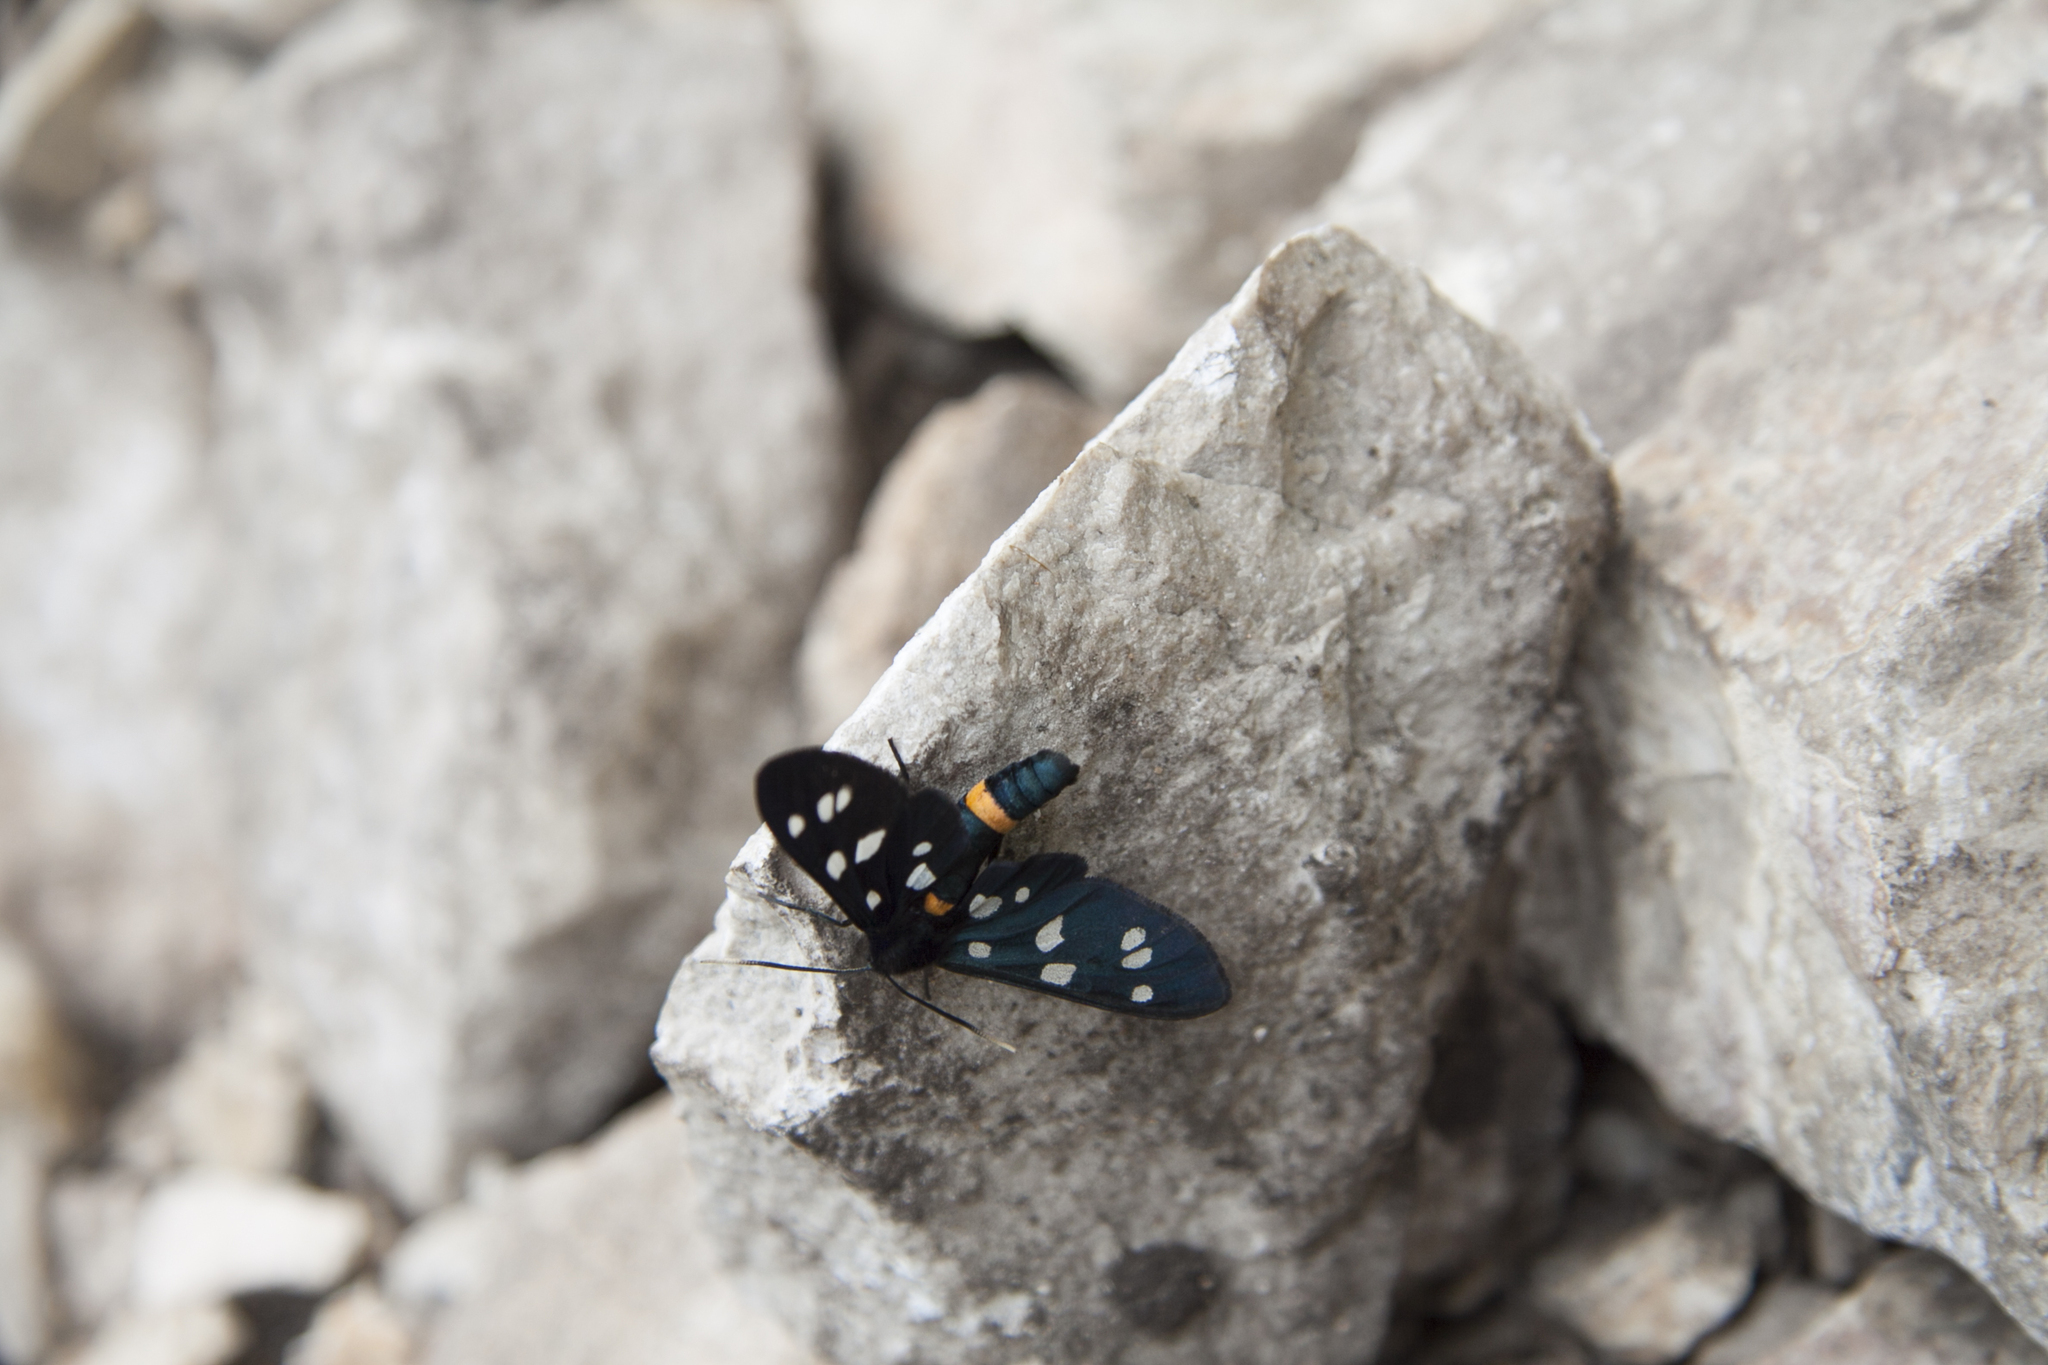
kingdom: Animalia
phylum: Arthropoda
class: Insecta
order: Lepidoptera
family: Erebidae
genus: Amata
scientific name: Amata nigricornis
